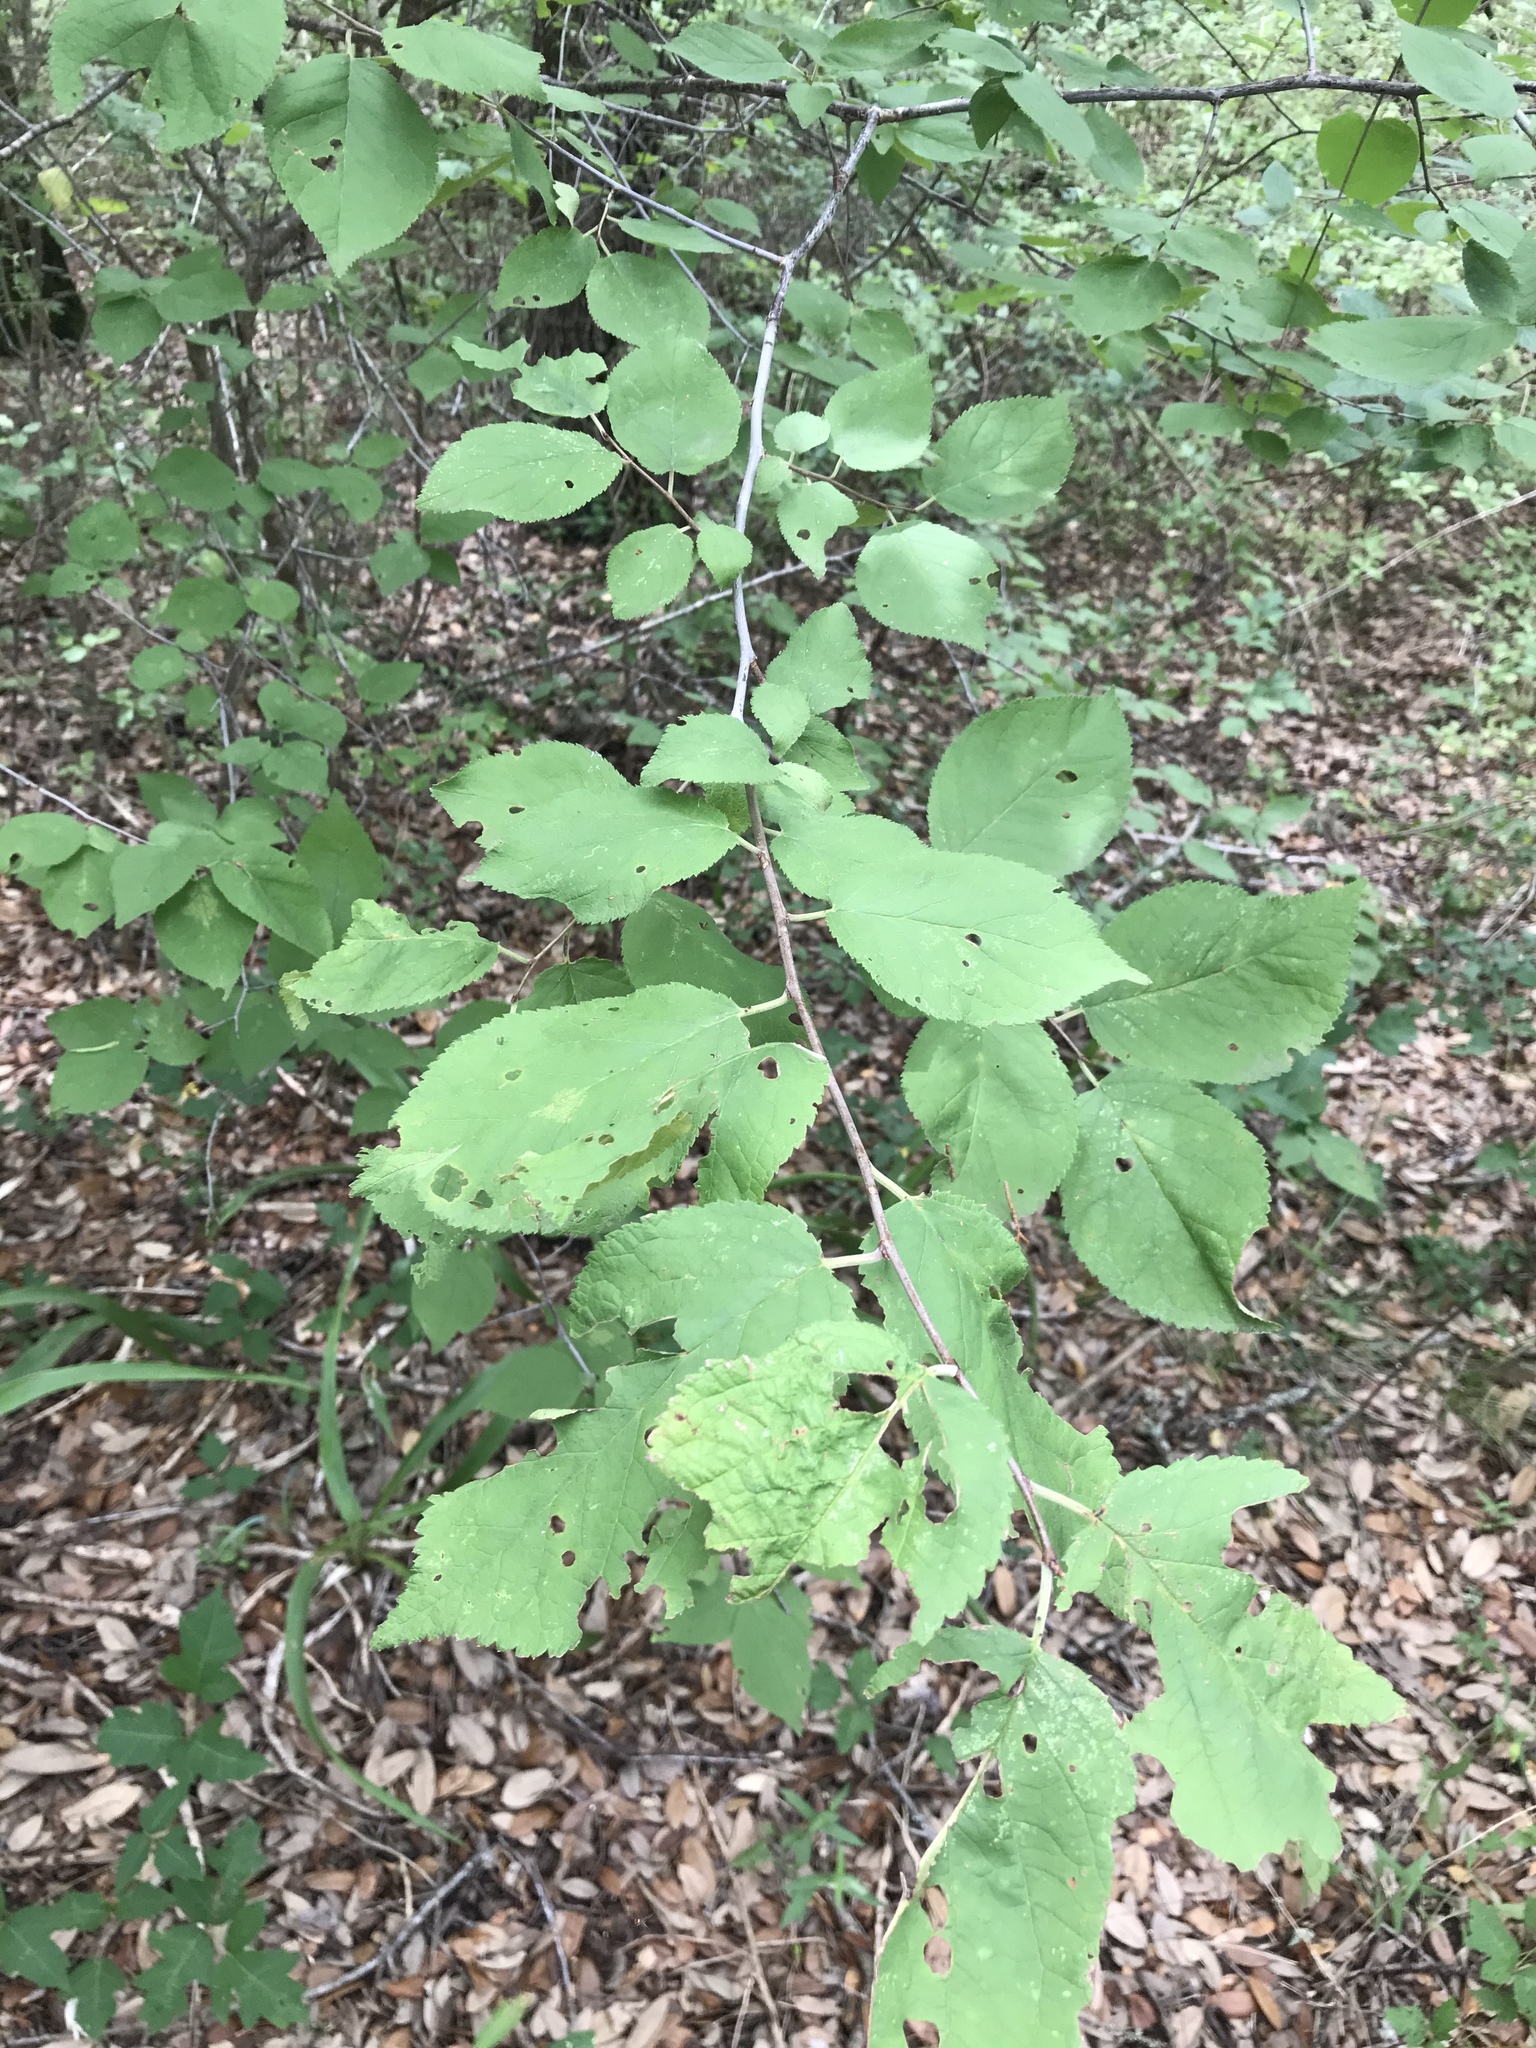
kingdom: Plantae
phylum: Tracheophyta
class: Magnoliopsida
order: Rosales
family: Rosaceae
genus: Prunus
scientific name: Prunus mexicana
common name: Mexican plum
